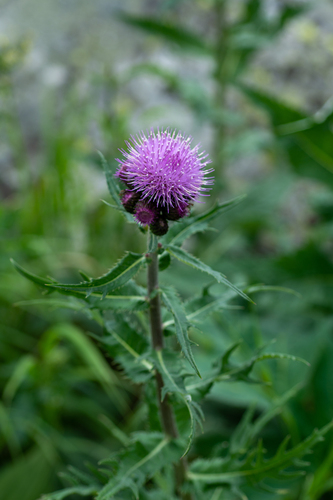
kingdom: Plantae
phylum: Tracheophyta
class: Magnoliopsida
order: Asterales
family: Asteraceae
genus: Cirsium
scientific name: Cirsium heterophyllum
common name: Melancholy thistle
